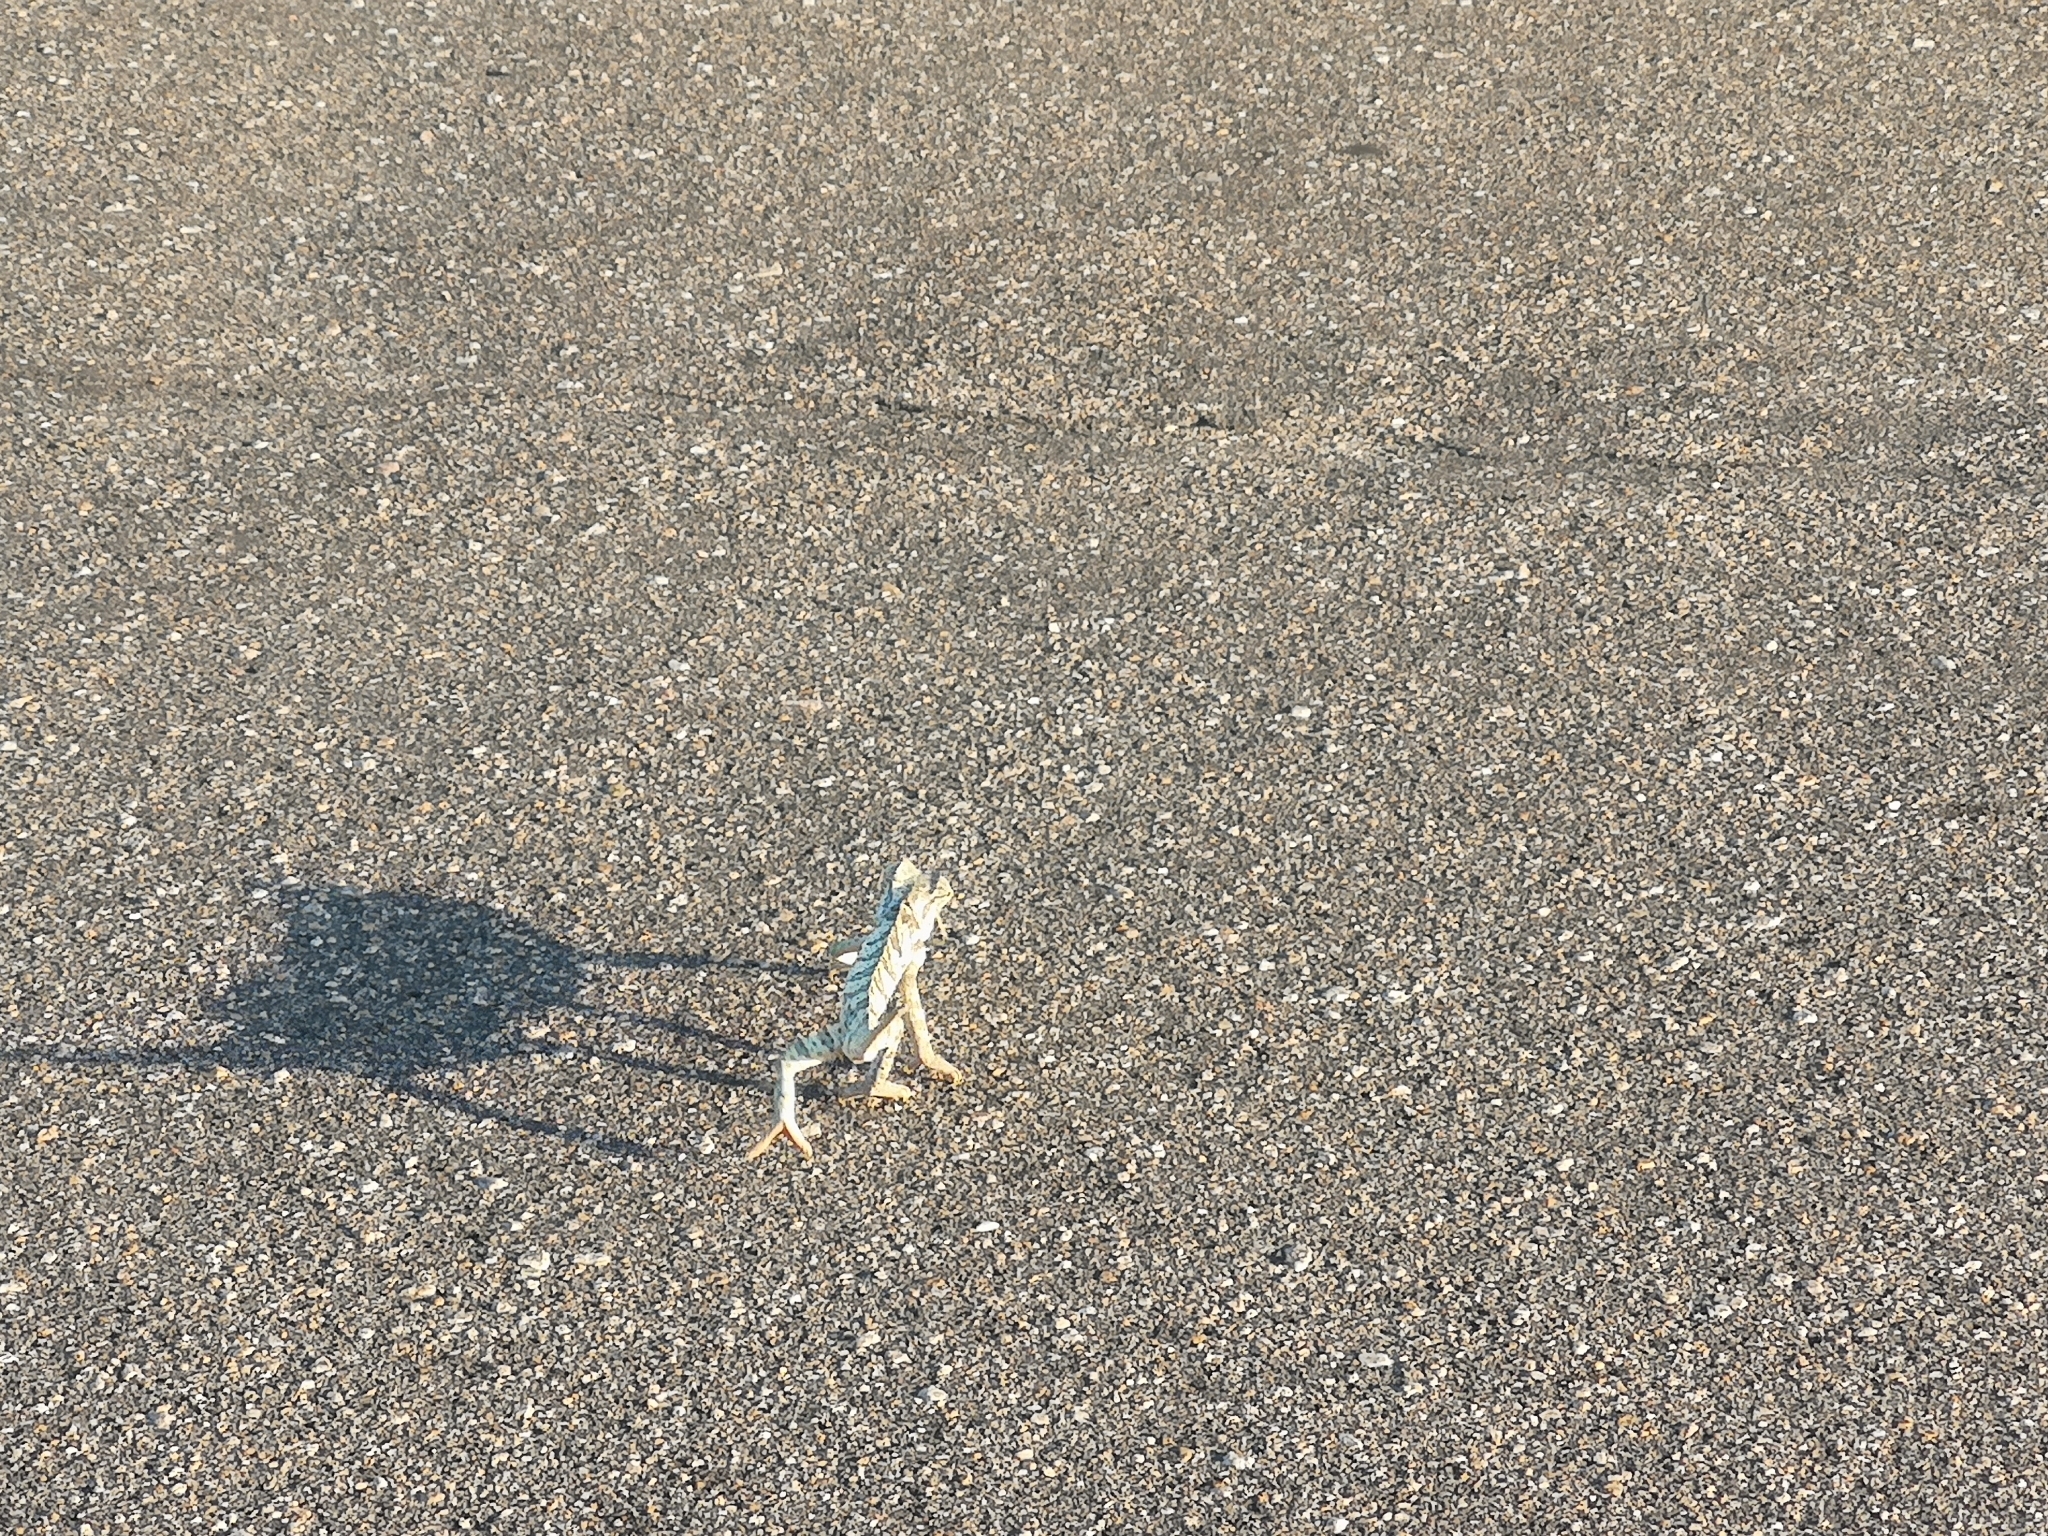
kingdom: Animalia
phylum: Chordata
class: Squamata
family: Chamaeleonidae
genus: Chamaeleo
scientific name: Chamaeleo dilepis
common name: Flapneck chameleon
